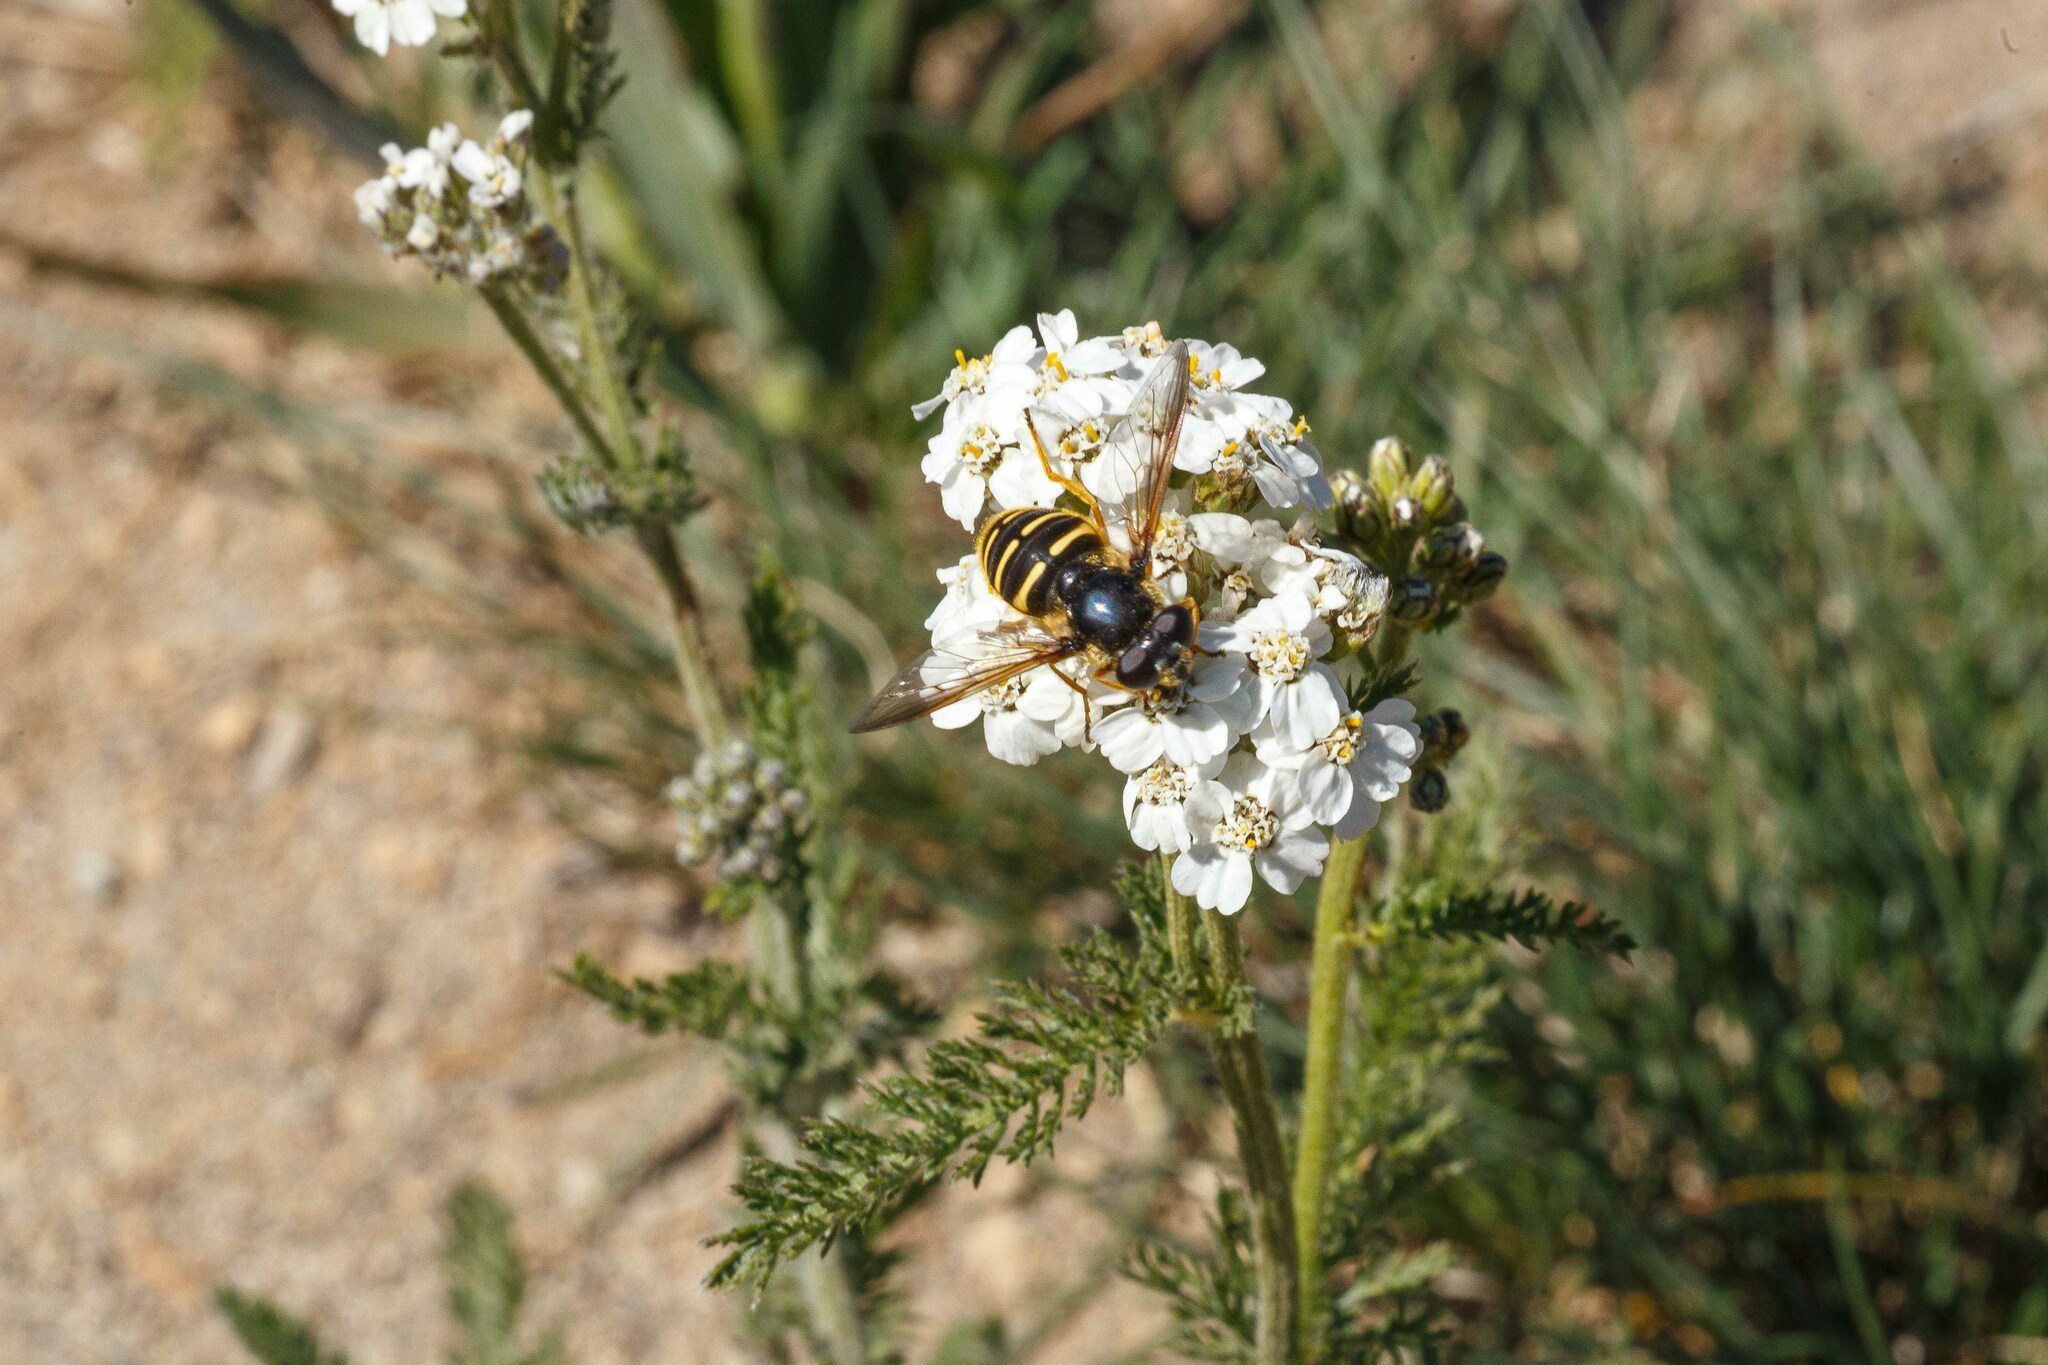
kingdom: Animalia
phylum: Arthropoda
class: Insecta
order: Diptera
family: Syrphidae
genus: Sericomyia
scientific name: Sericomyia chalcopyga
